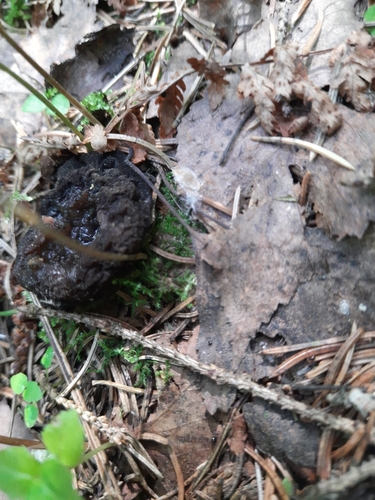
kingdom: Fungi
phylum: Ascomycota
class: Pezizomycetes
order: Pezizales
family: Sarcosomataceae
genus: Sarcosoma
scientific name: Sarcosoma globosum
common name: Charred-pancake cup
